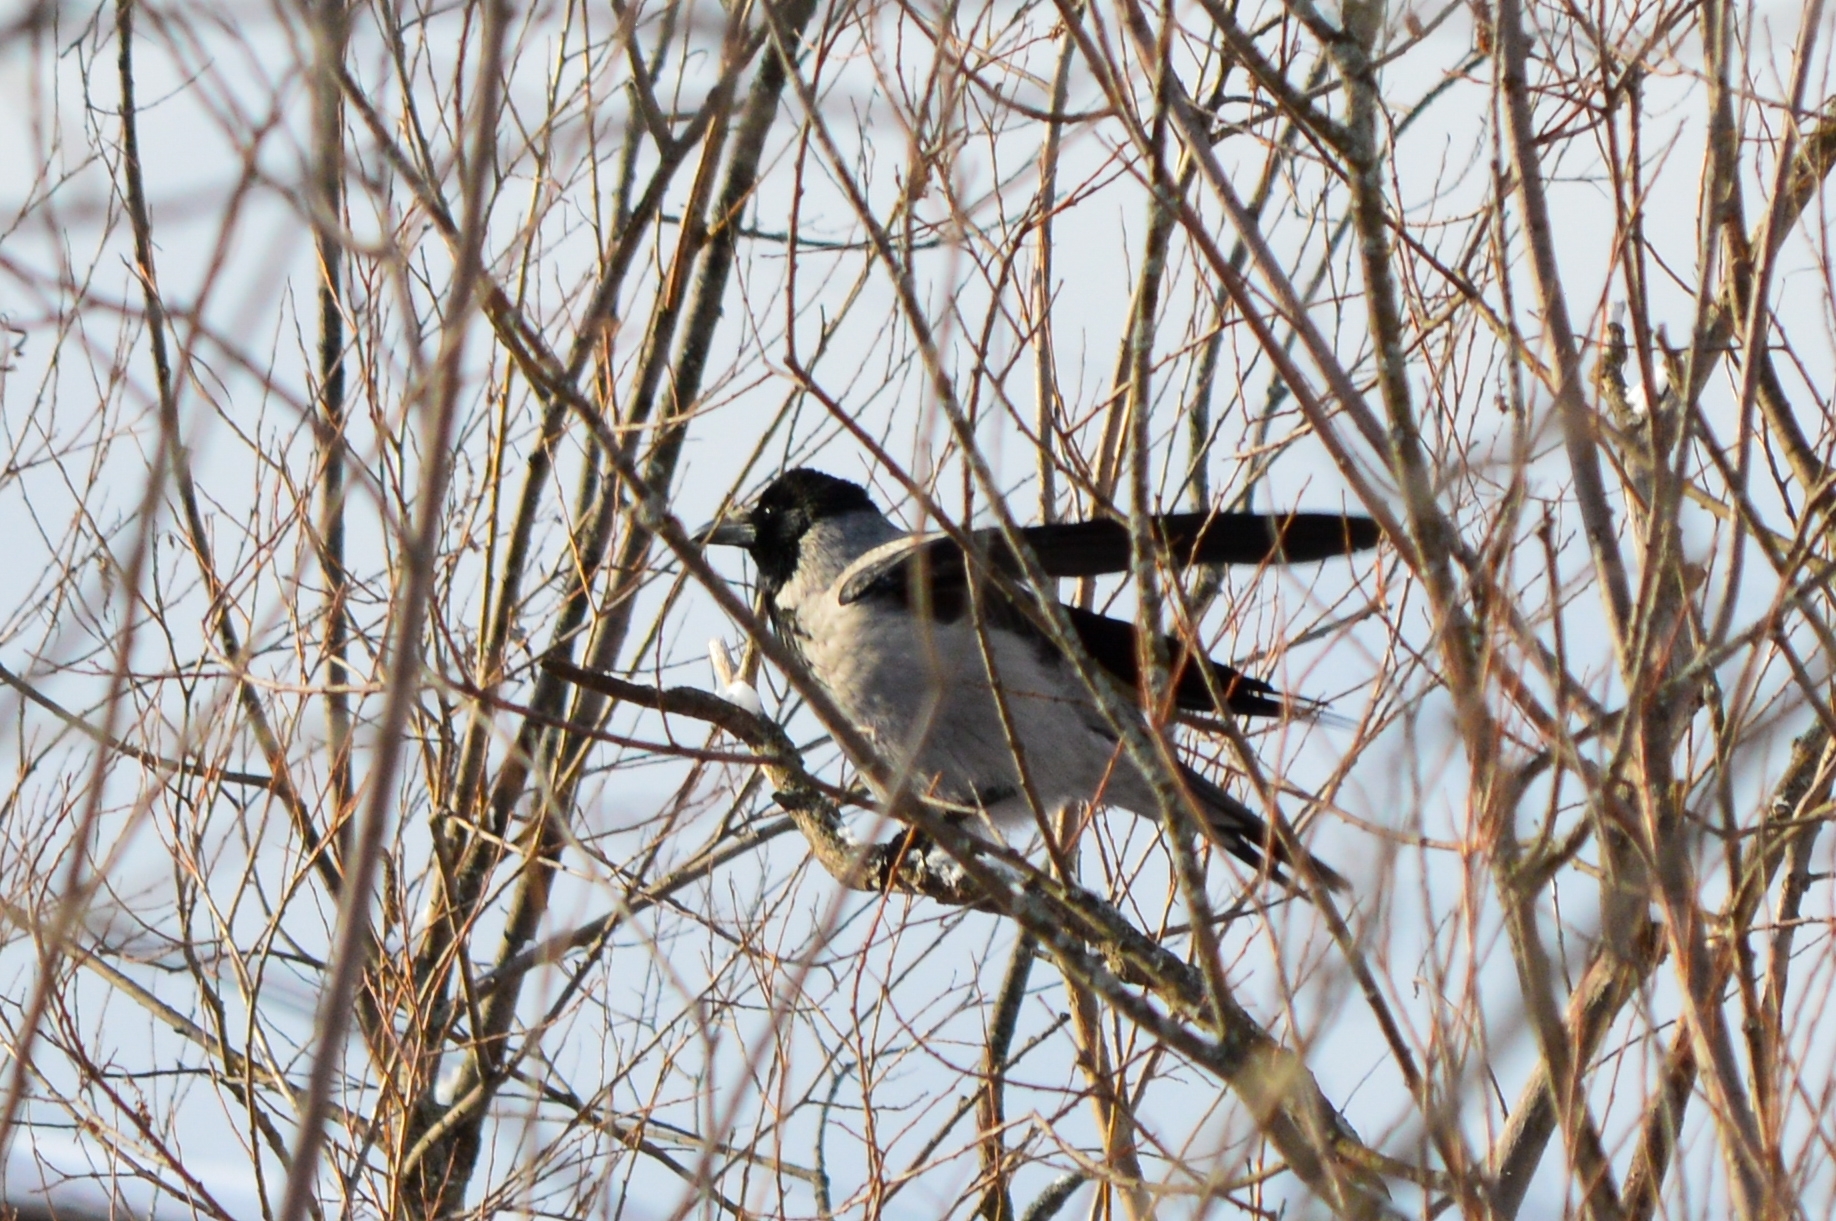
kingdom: Animalia
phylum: Chordata
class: Aves
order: Passeriformes
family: Corvidae
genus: Corvus
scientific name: Corvus cornix
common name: Hooded crow
